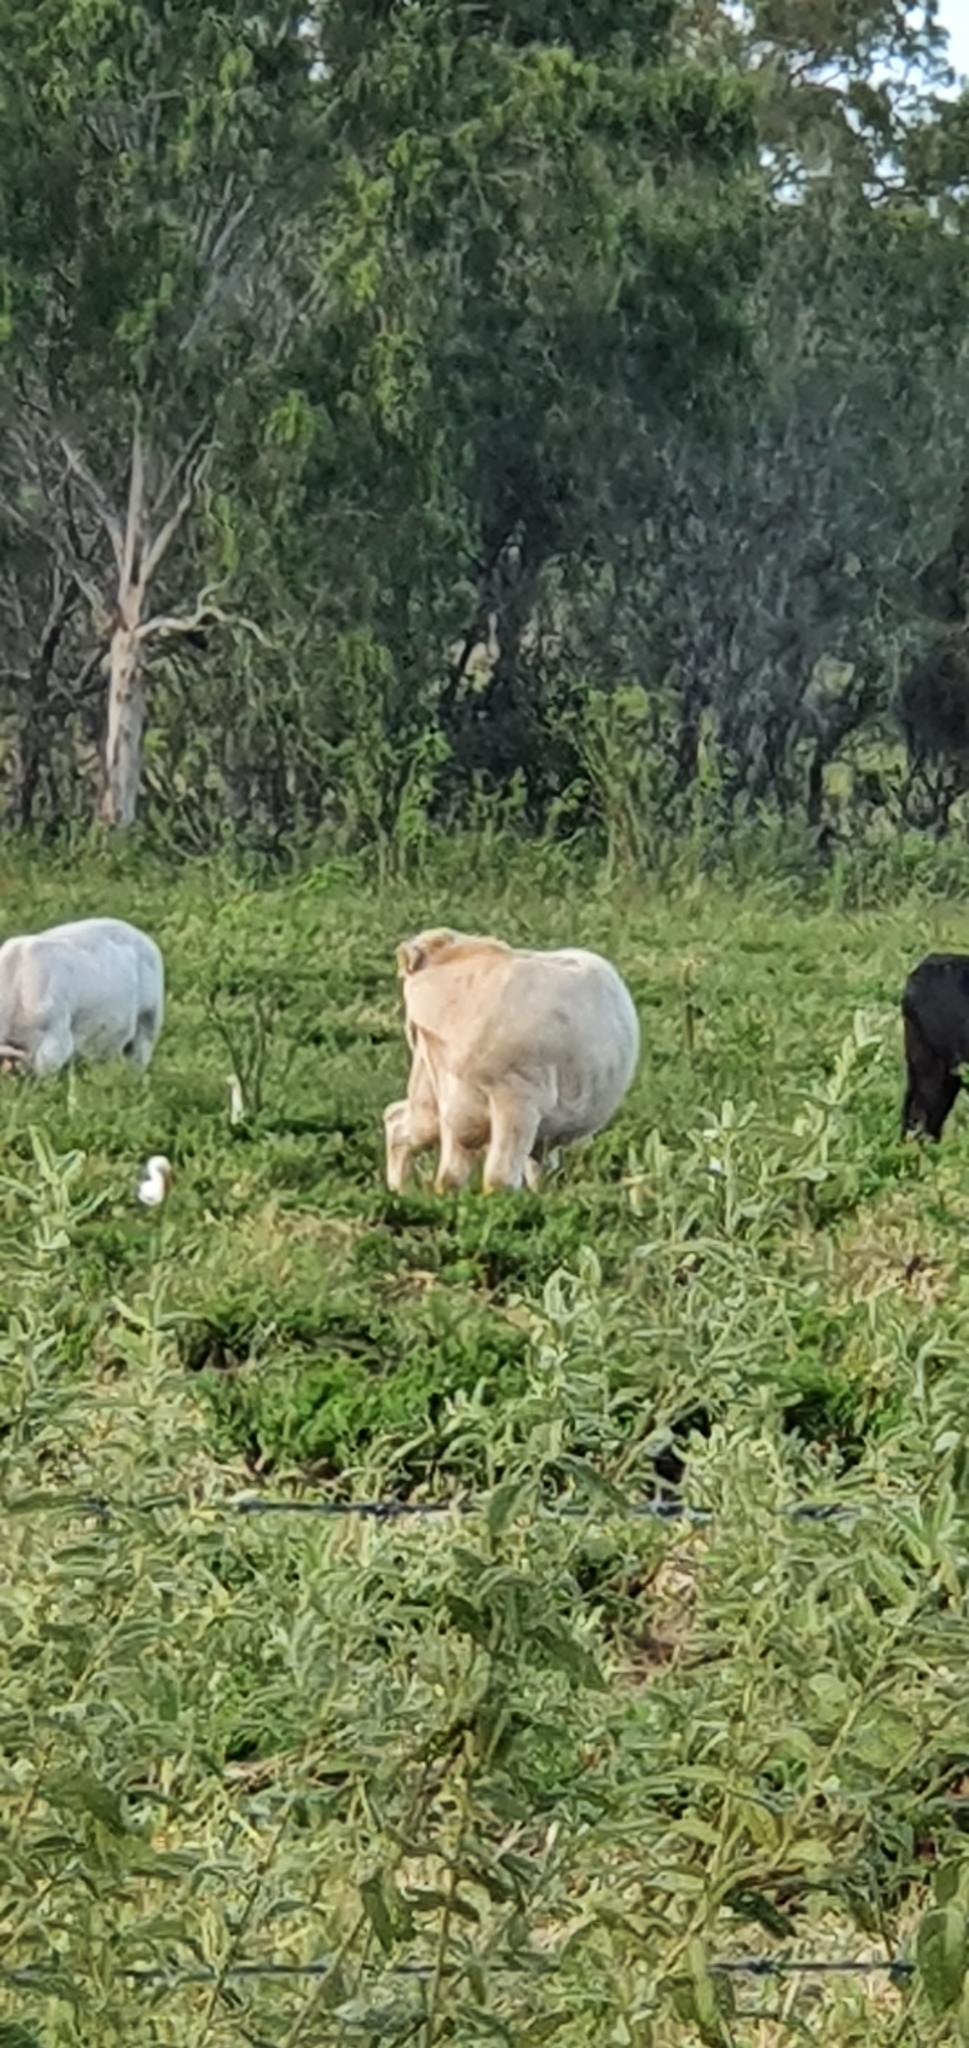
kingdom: Animalia
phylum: Chordata
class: Aves
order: Pelecaniformes
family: Ardeidae
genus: Bubulcus
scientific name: Bubulcus coromandus
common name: Eastern cattle egret
